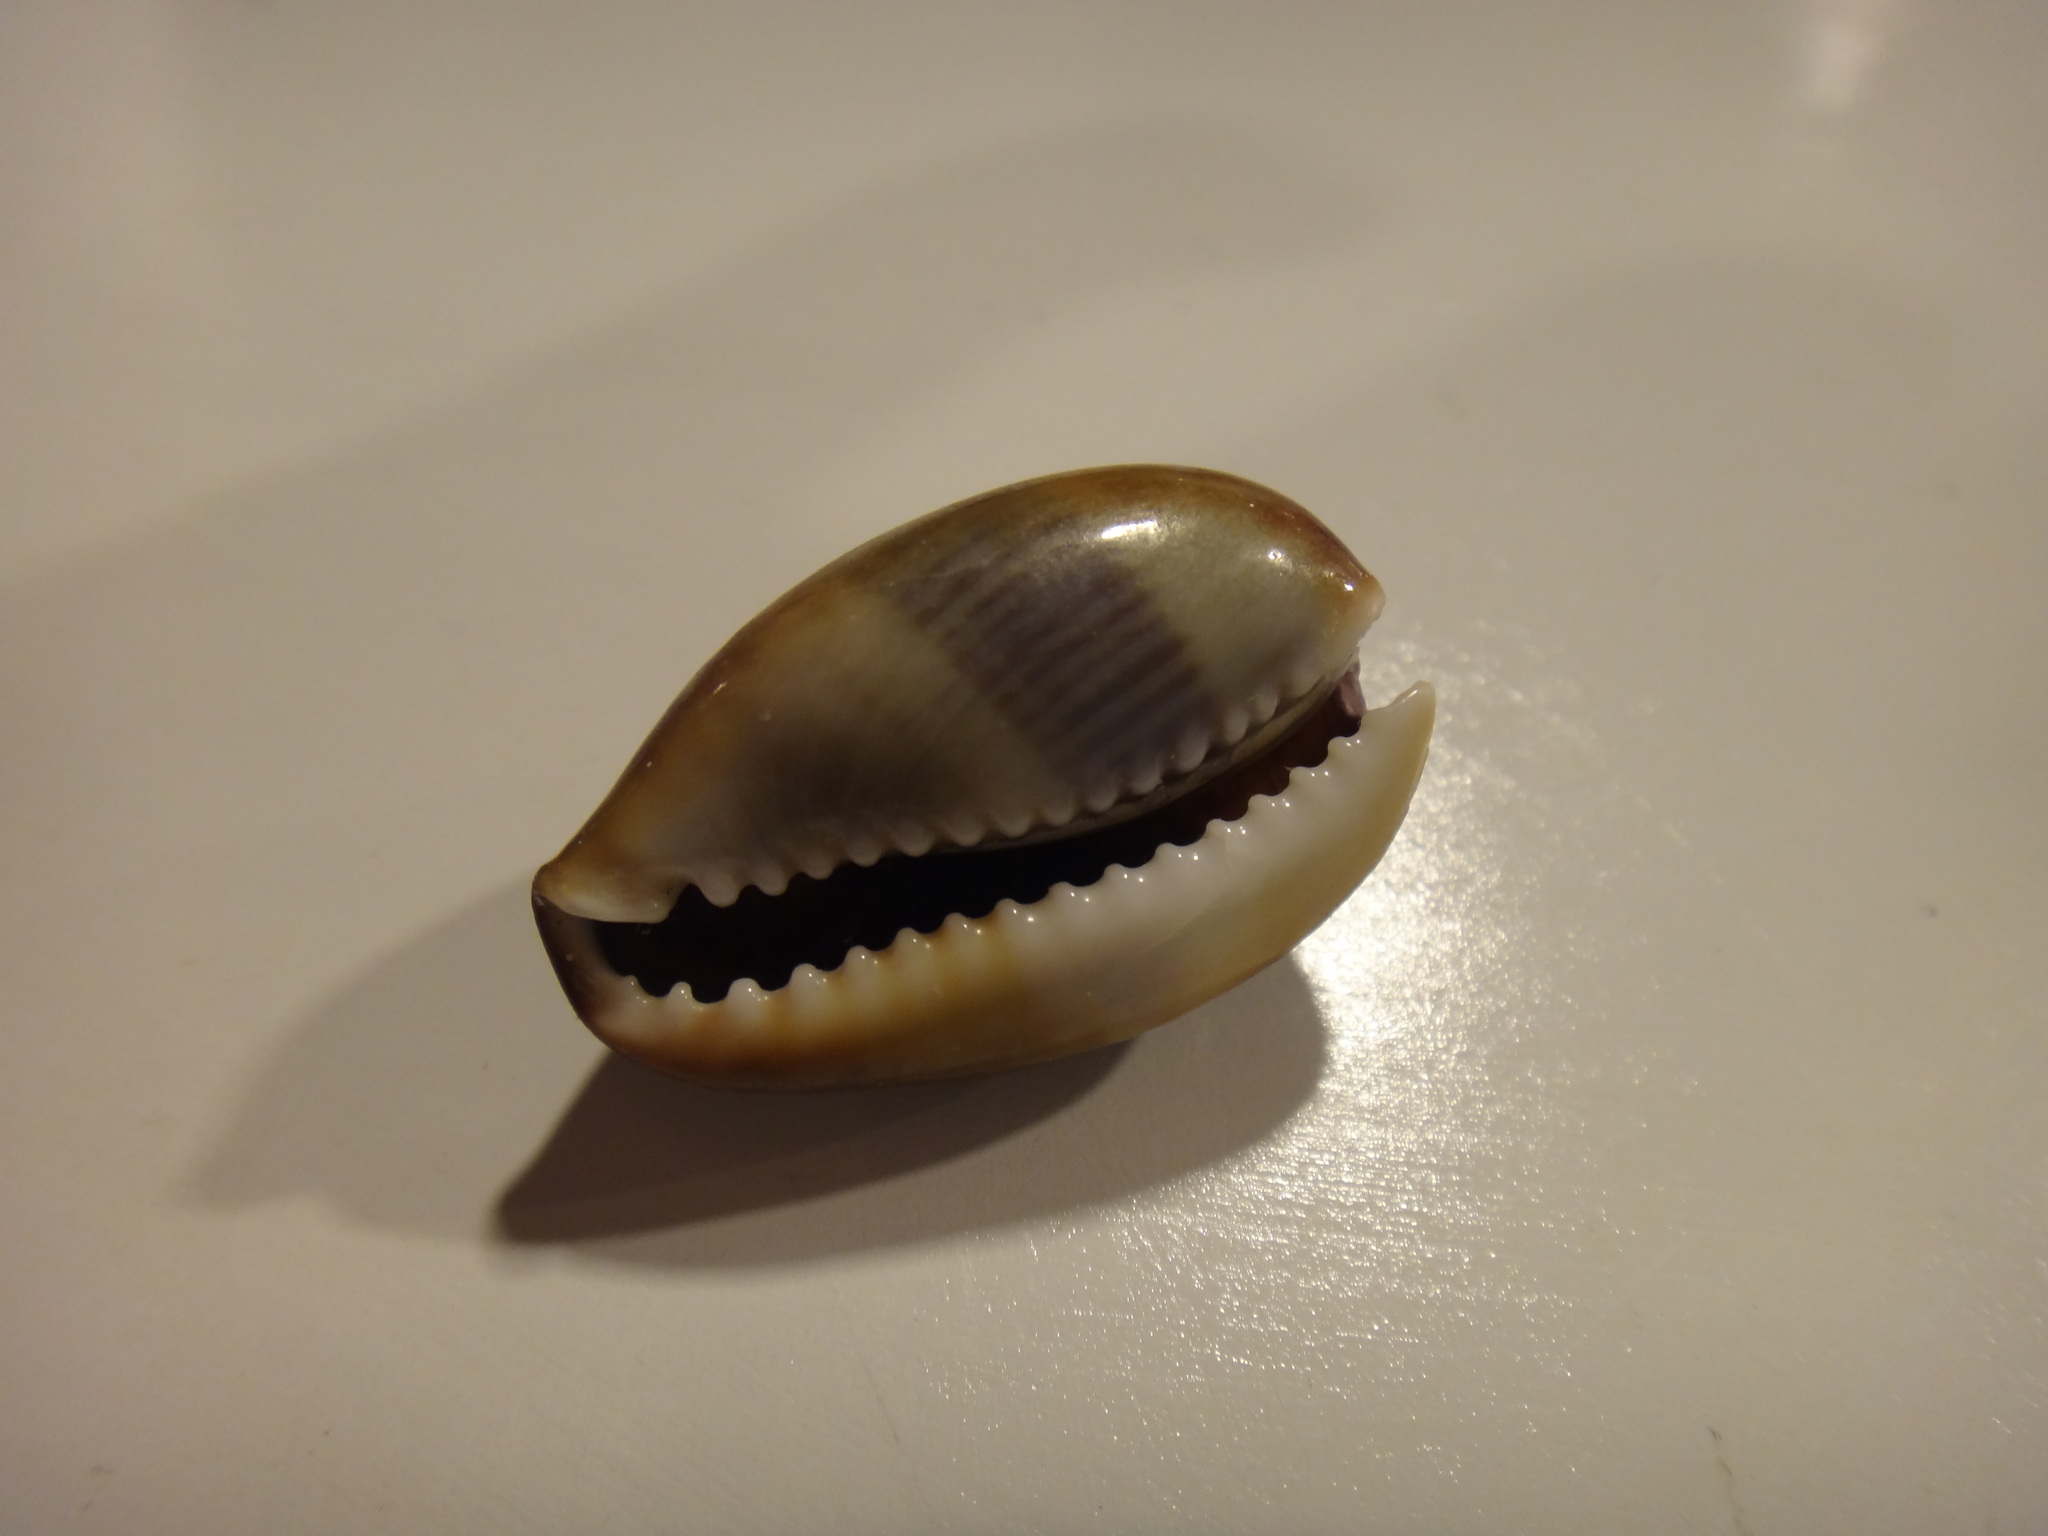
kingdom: Animalia
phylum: Mollusca
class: Gastropoda
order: Littorinimorpha
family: Cypraeidae
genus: Monetaria
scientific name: Monetaria caputserpentis
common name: Serpent's head cowrie
